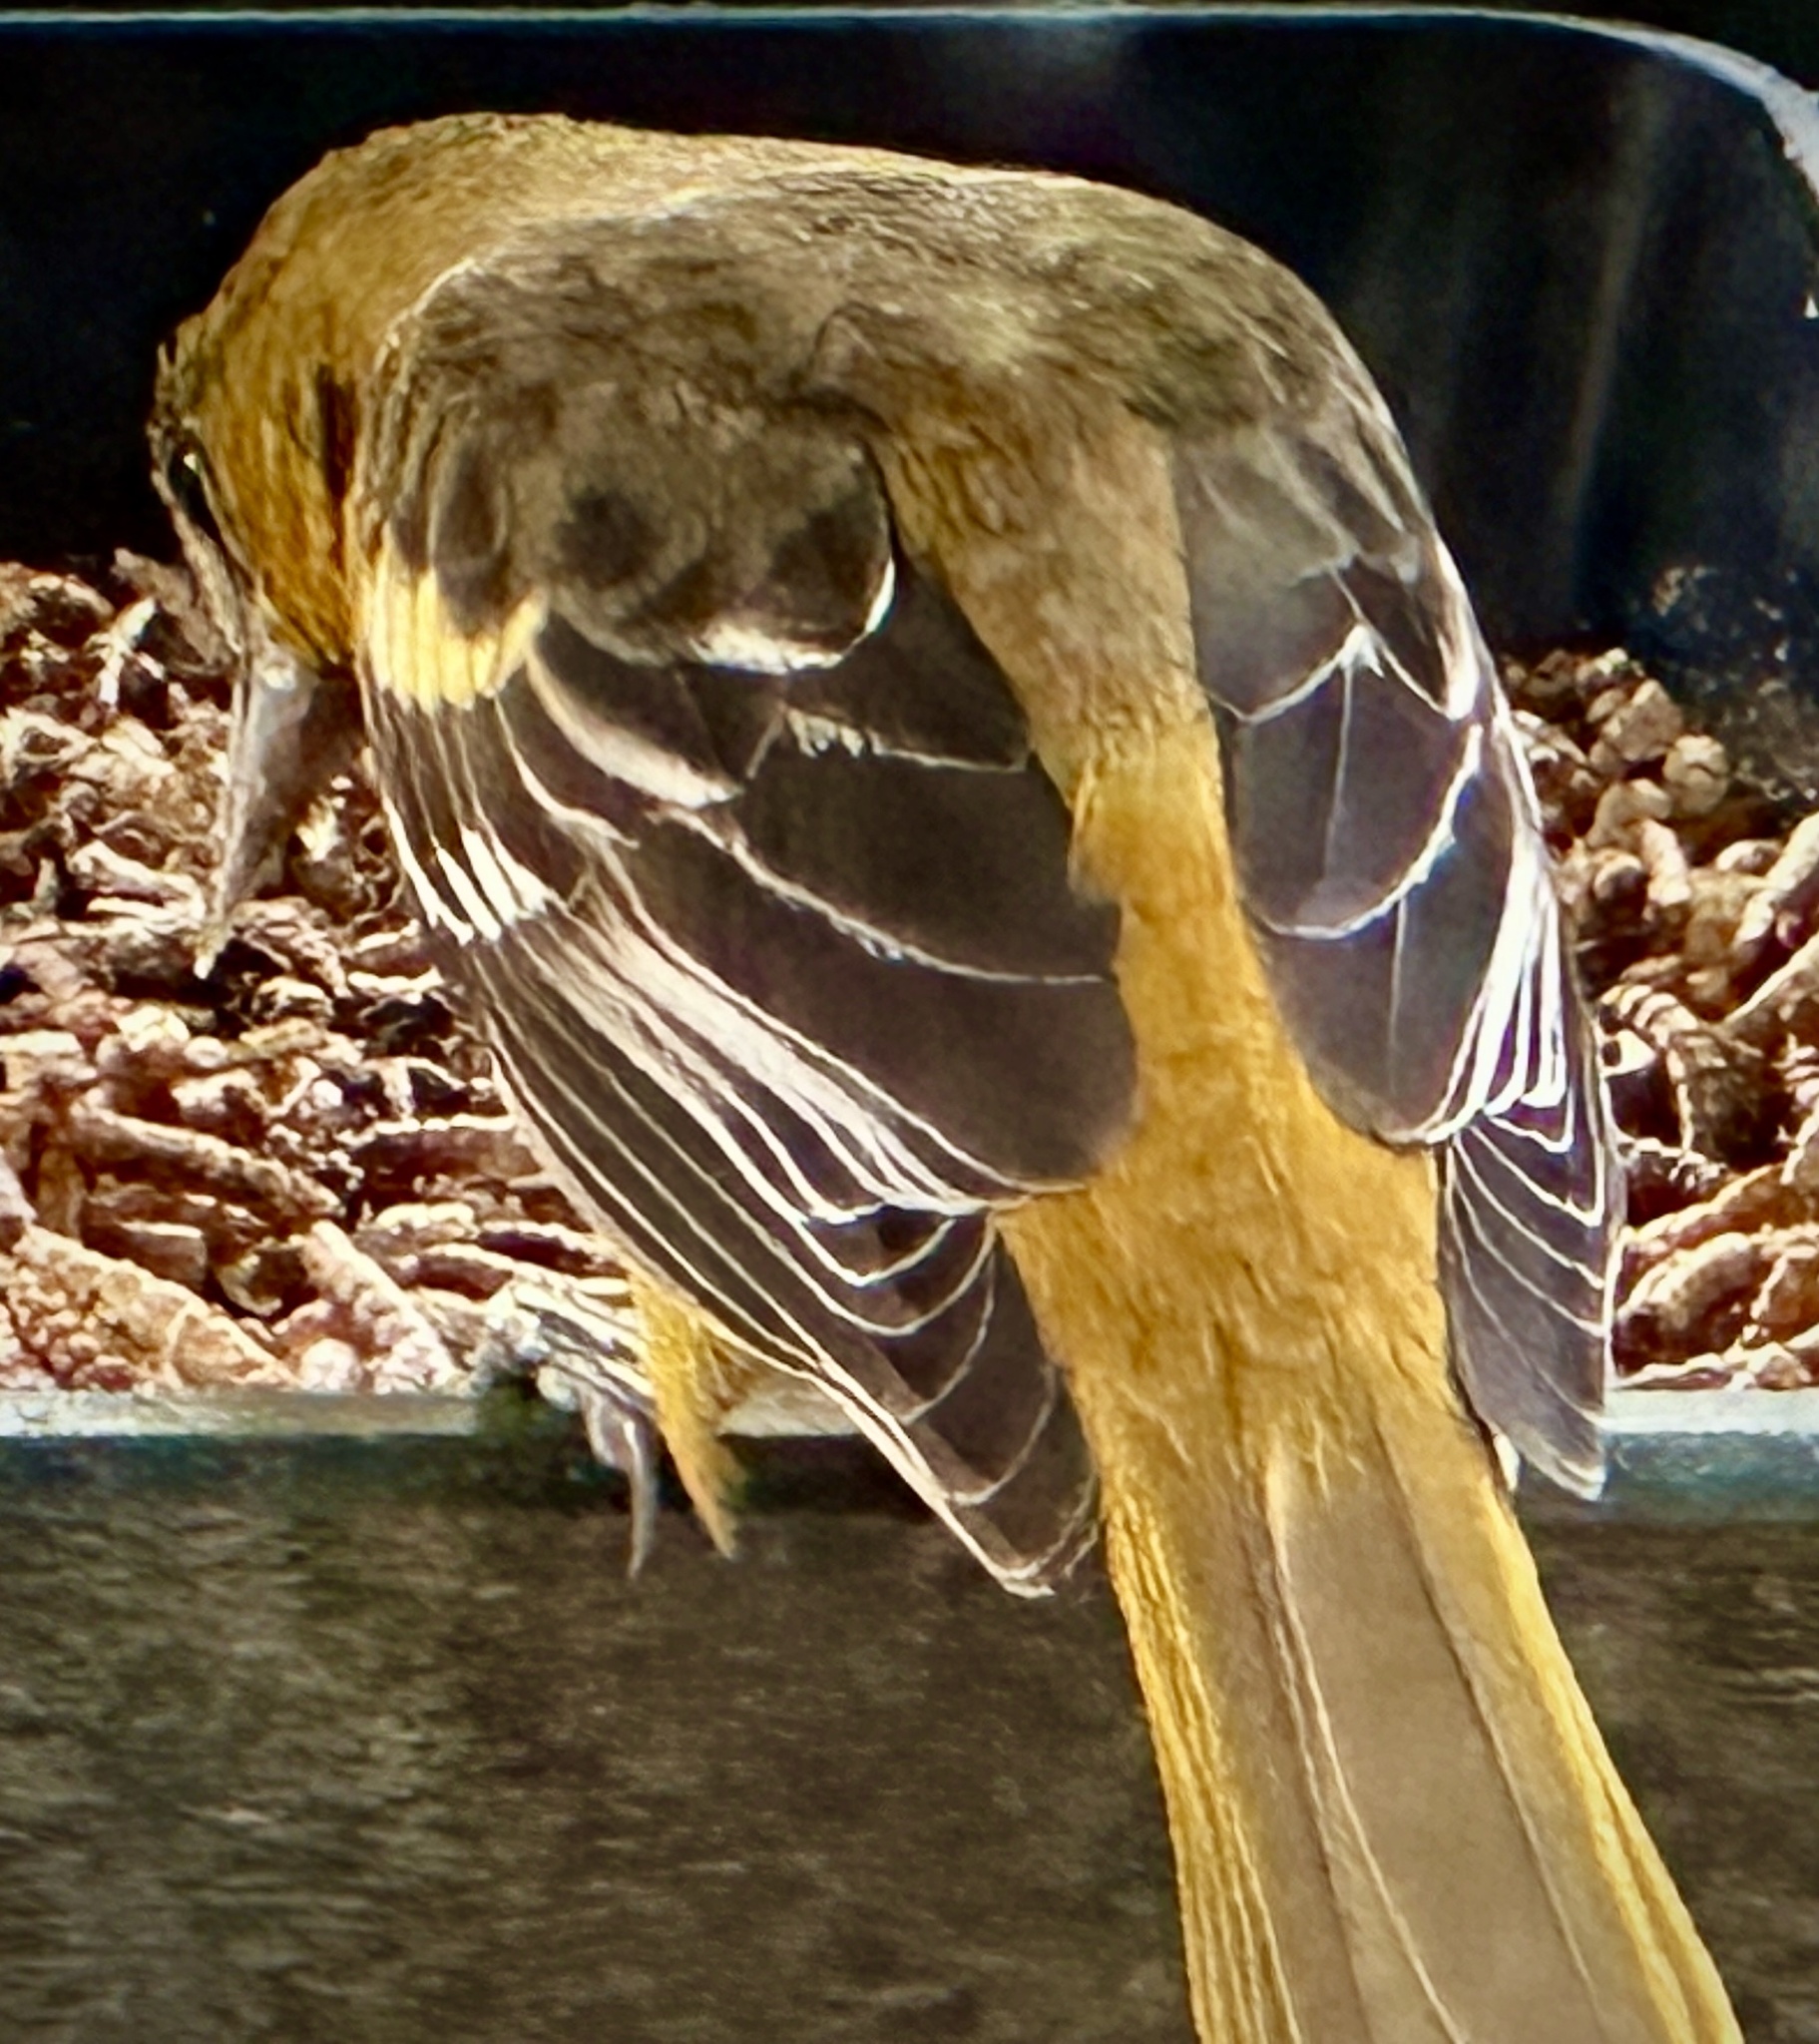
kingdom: Animalia
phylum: Chordata
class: Aves
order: Passeriformes
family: Icteridae
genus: Icterus
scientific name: Icterus galbula
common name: Baltimore oriole
